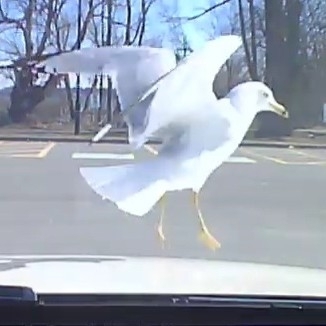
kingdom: Animalia
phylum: Chordata
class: Aves
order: Charadriiformes
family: Laridae
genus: Larus
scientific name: Larus delawarensis
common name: Ring-billed gull
